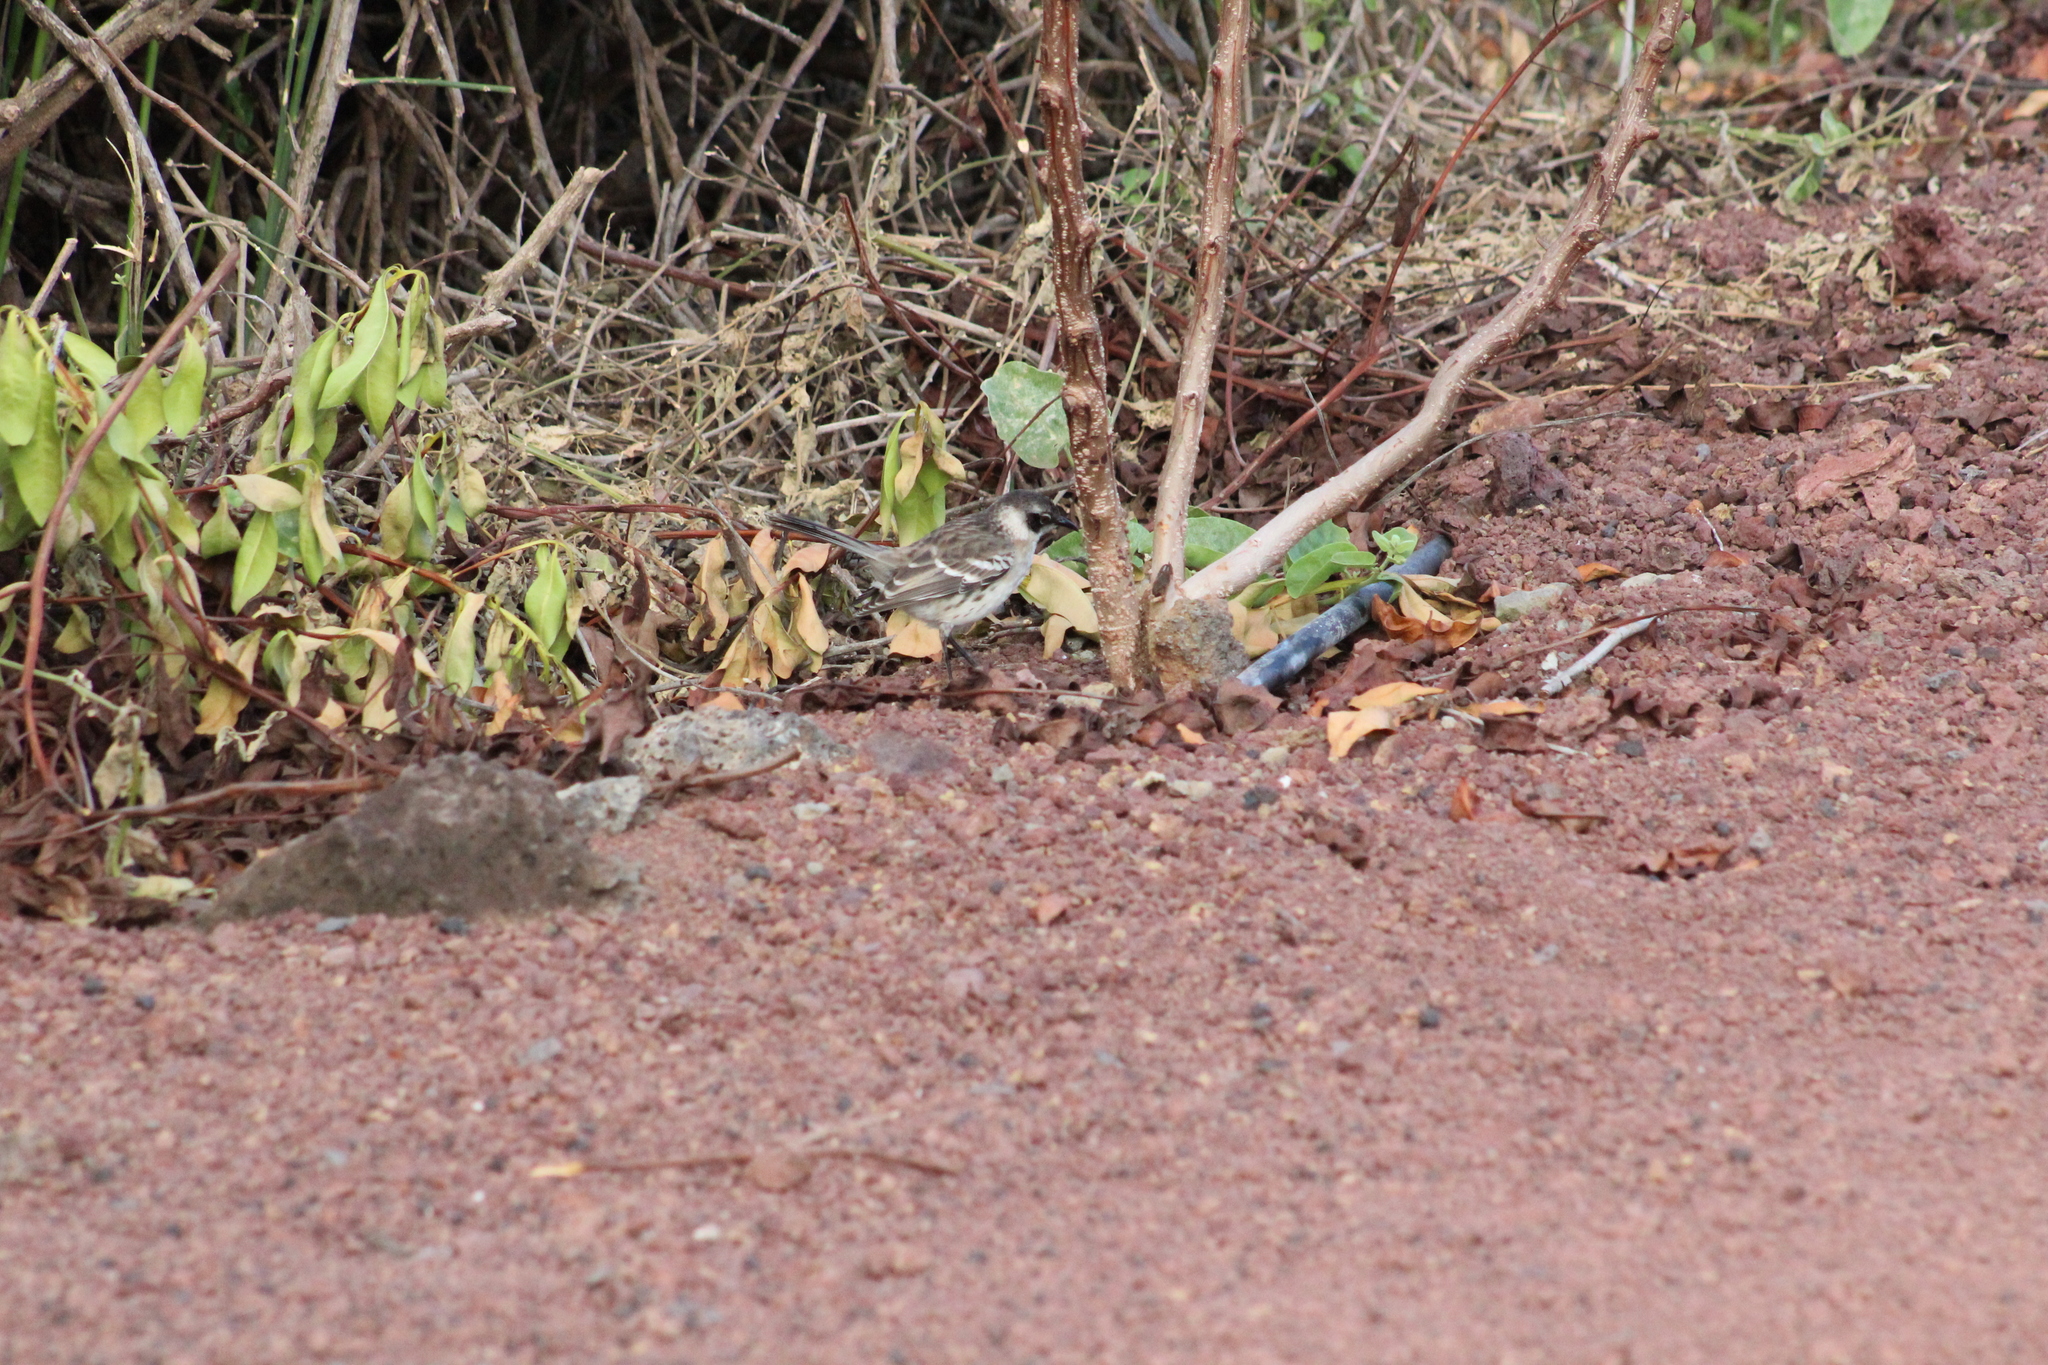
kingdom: Animalia
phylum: Chordata
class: Aves
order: Passeriformes
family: Mimidae
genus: Mimus
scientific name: Mimus parvulus
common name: Galapagos mockingbird
